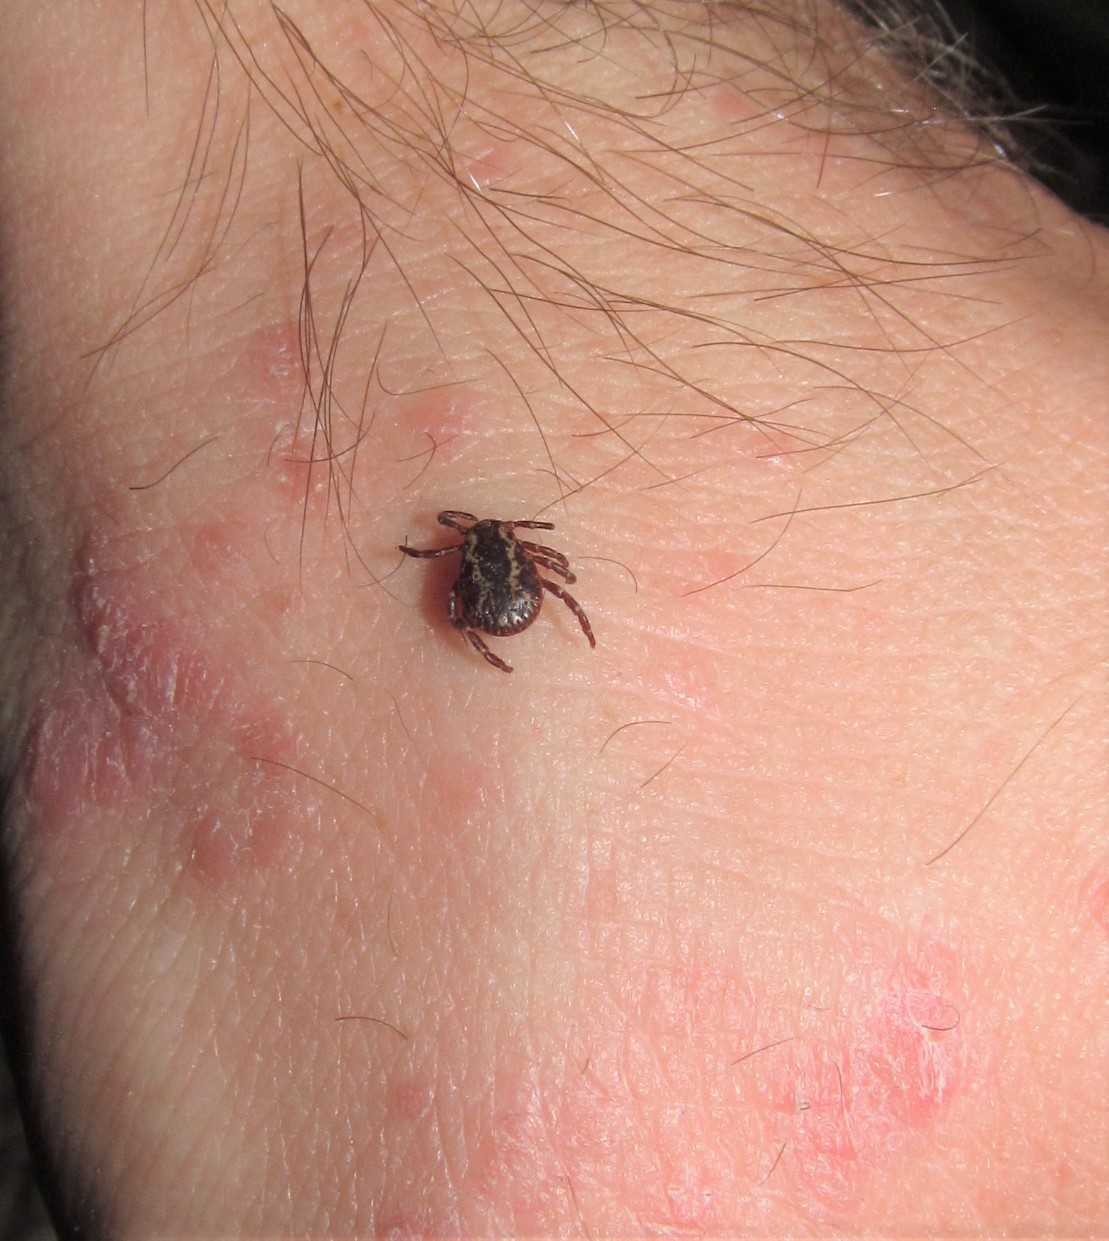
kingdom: Animalia
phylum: Arthropoda
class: Arachnida
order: Ixodida
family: Ixodidae
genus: Dermacentor
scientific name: Dermacentor variabilis
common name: American dog tick
